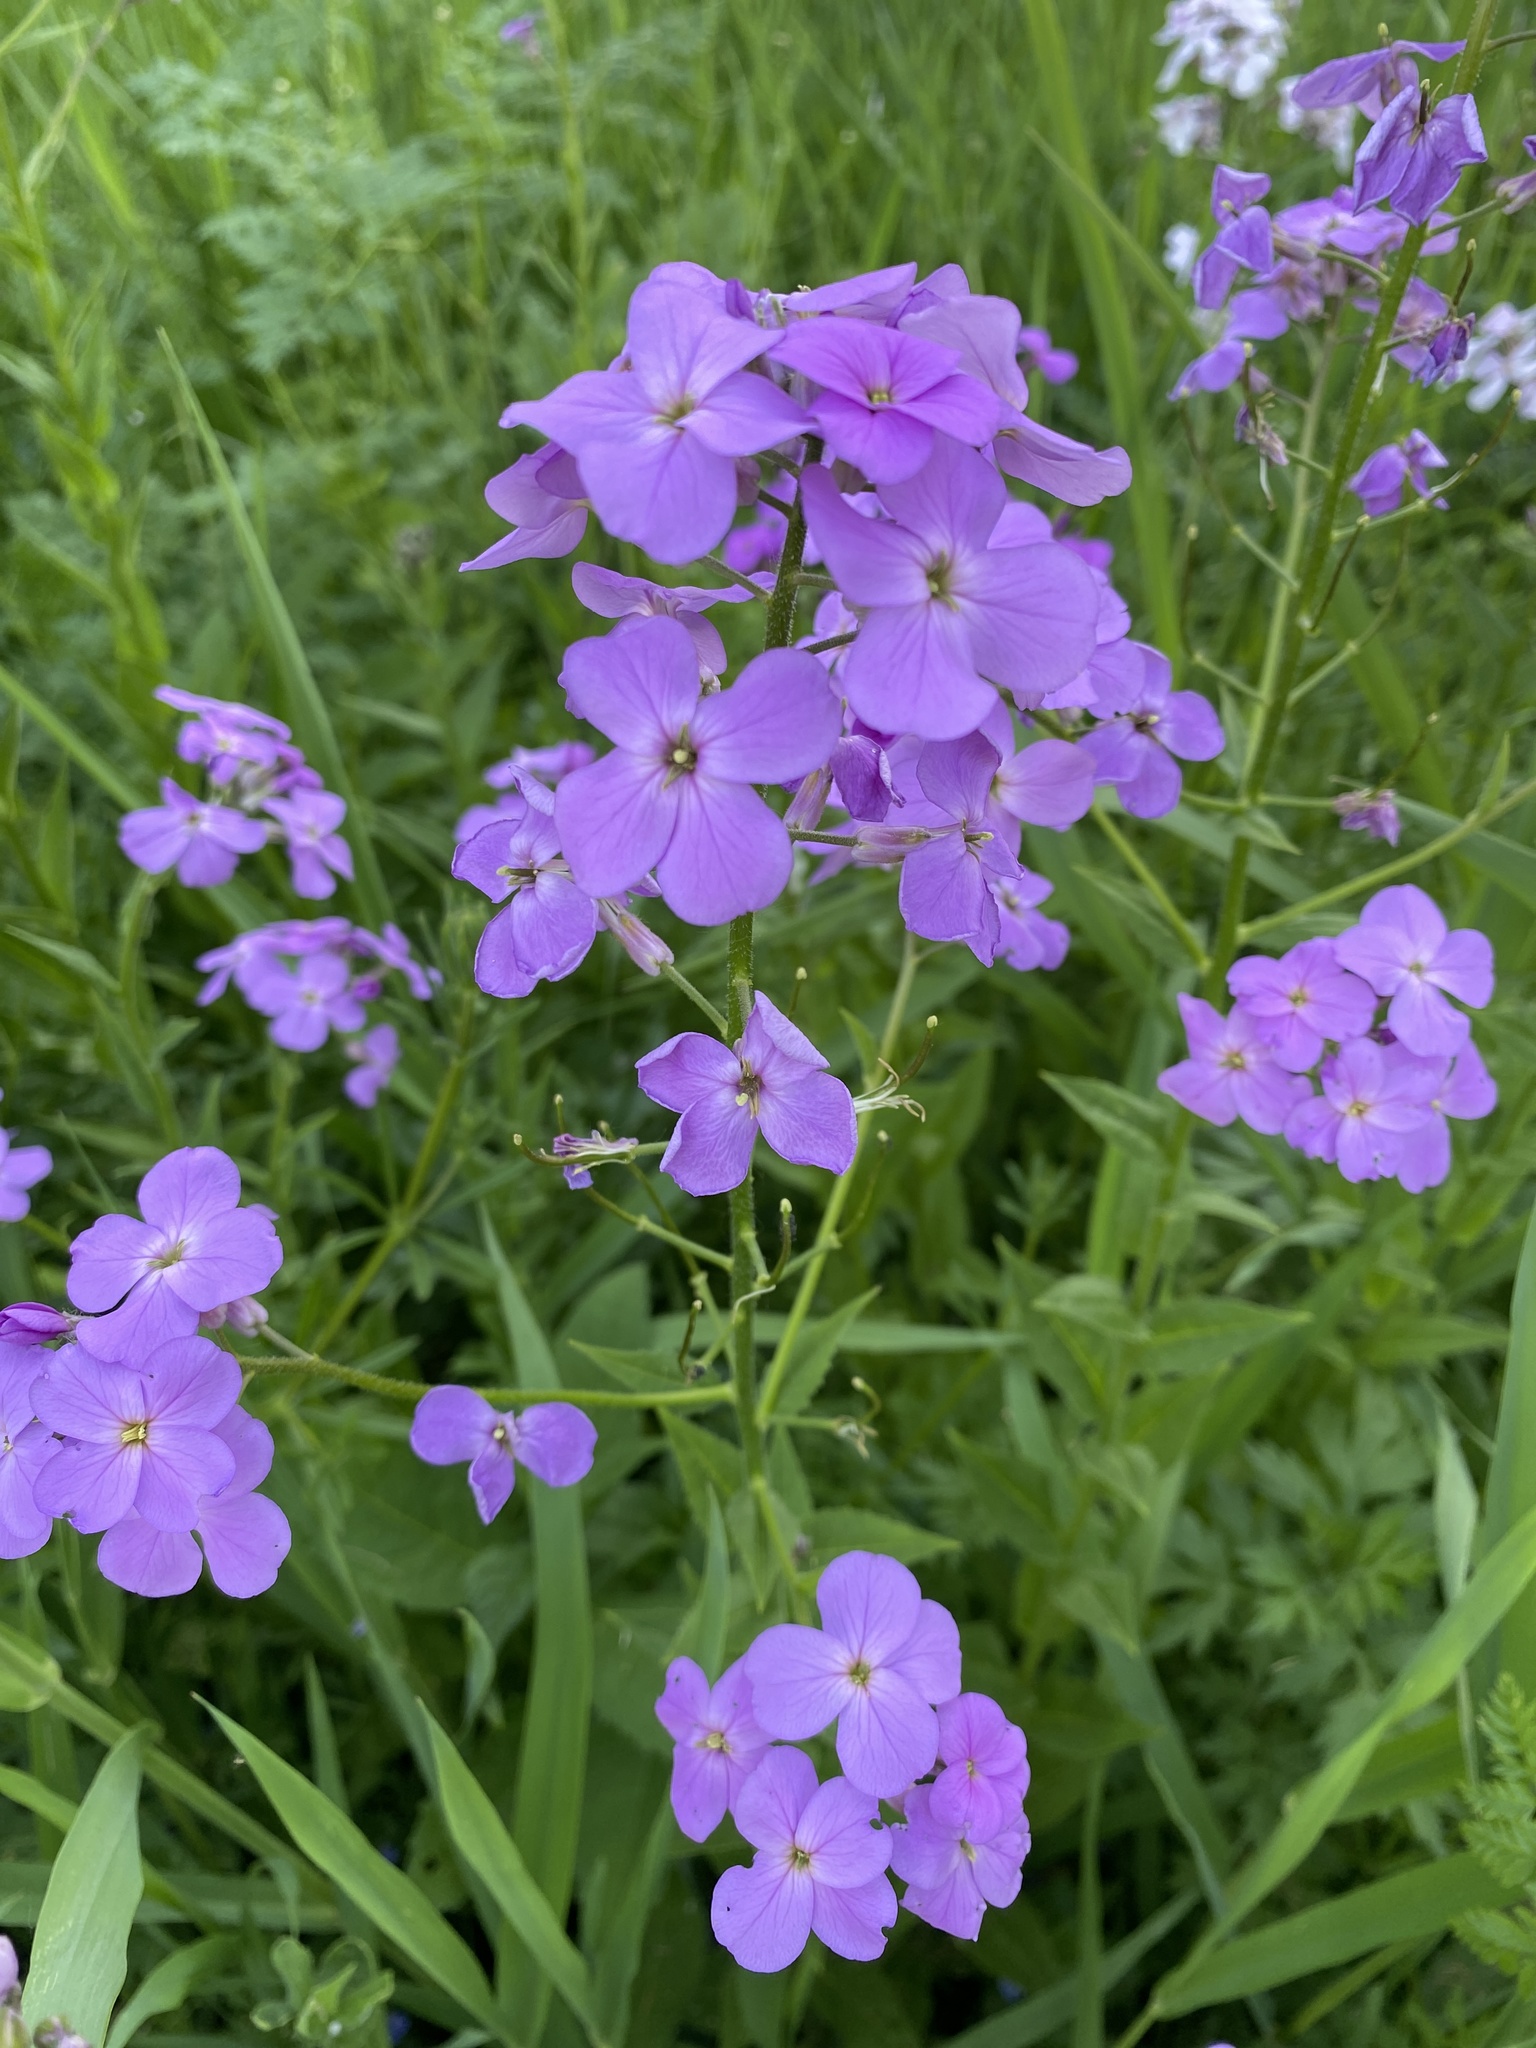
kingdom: Plantae
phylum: Tracheophyta
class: Magnoliopsida
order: Brassicales
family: Brassicaceae
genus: Hesperis
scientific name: Hesperis matronalis
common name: Dame's-violet
